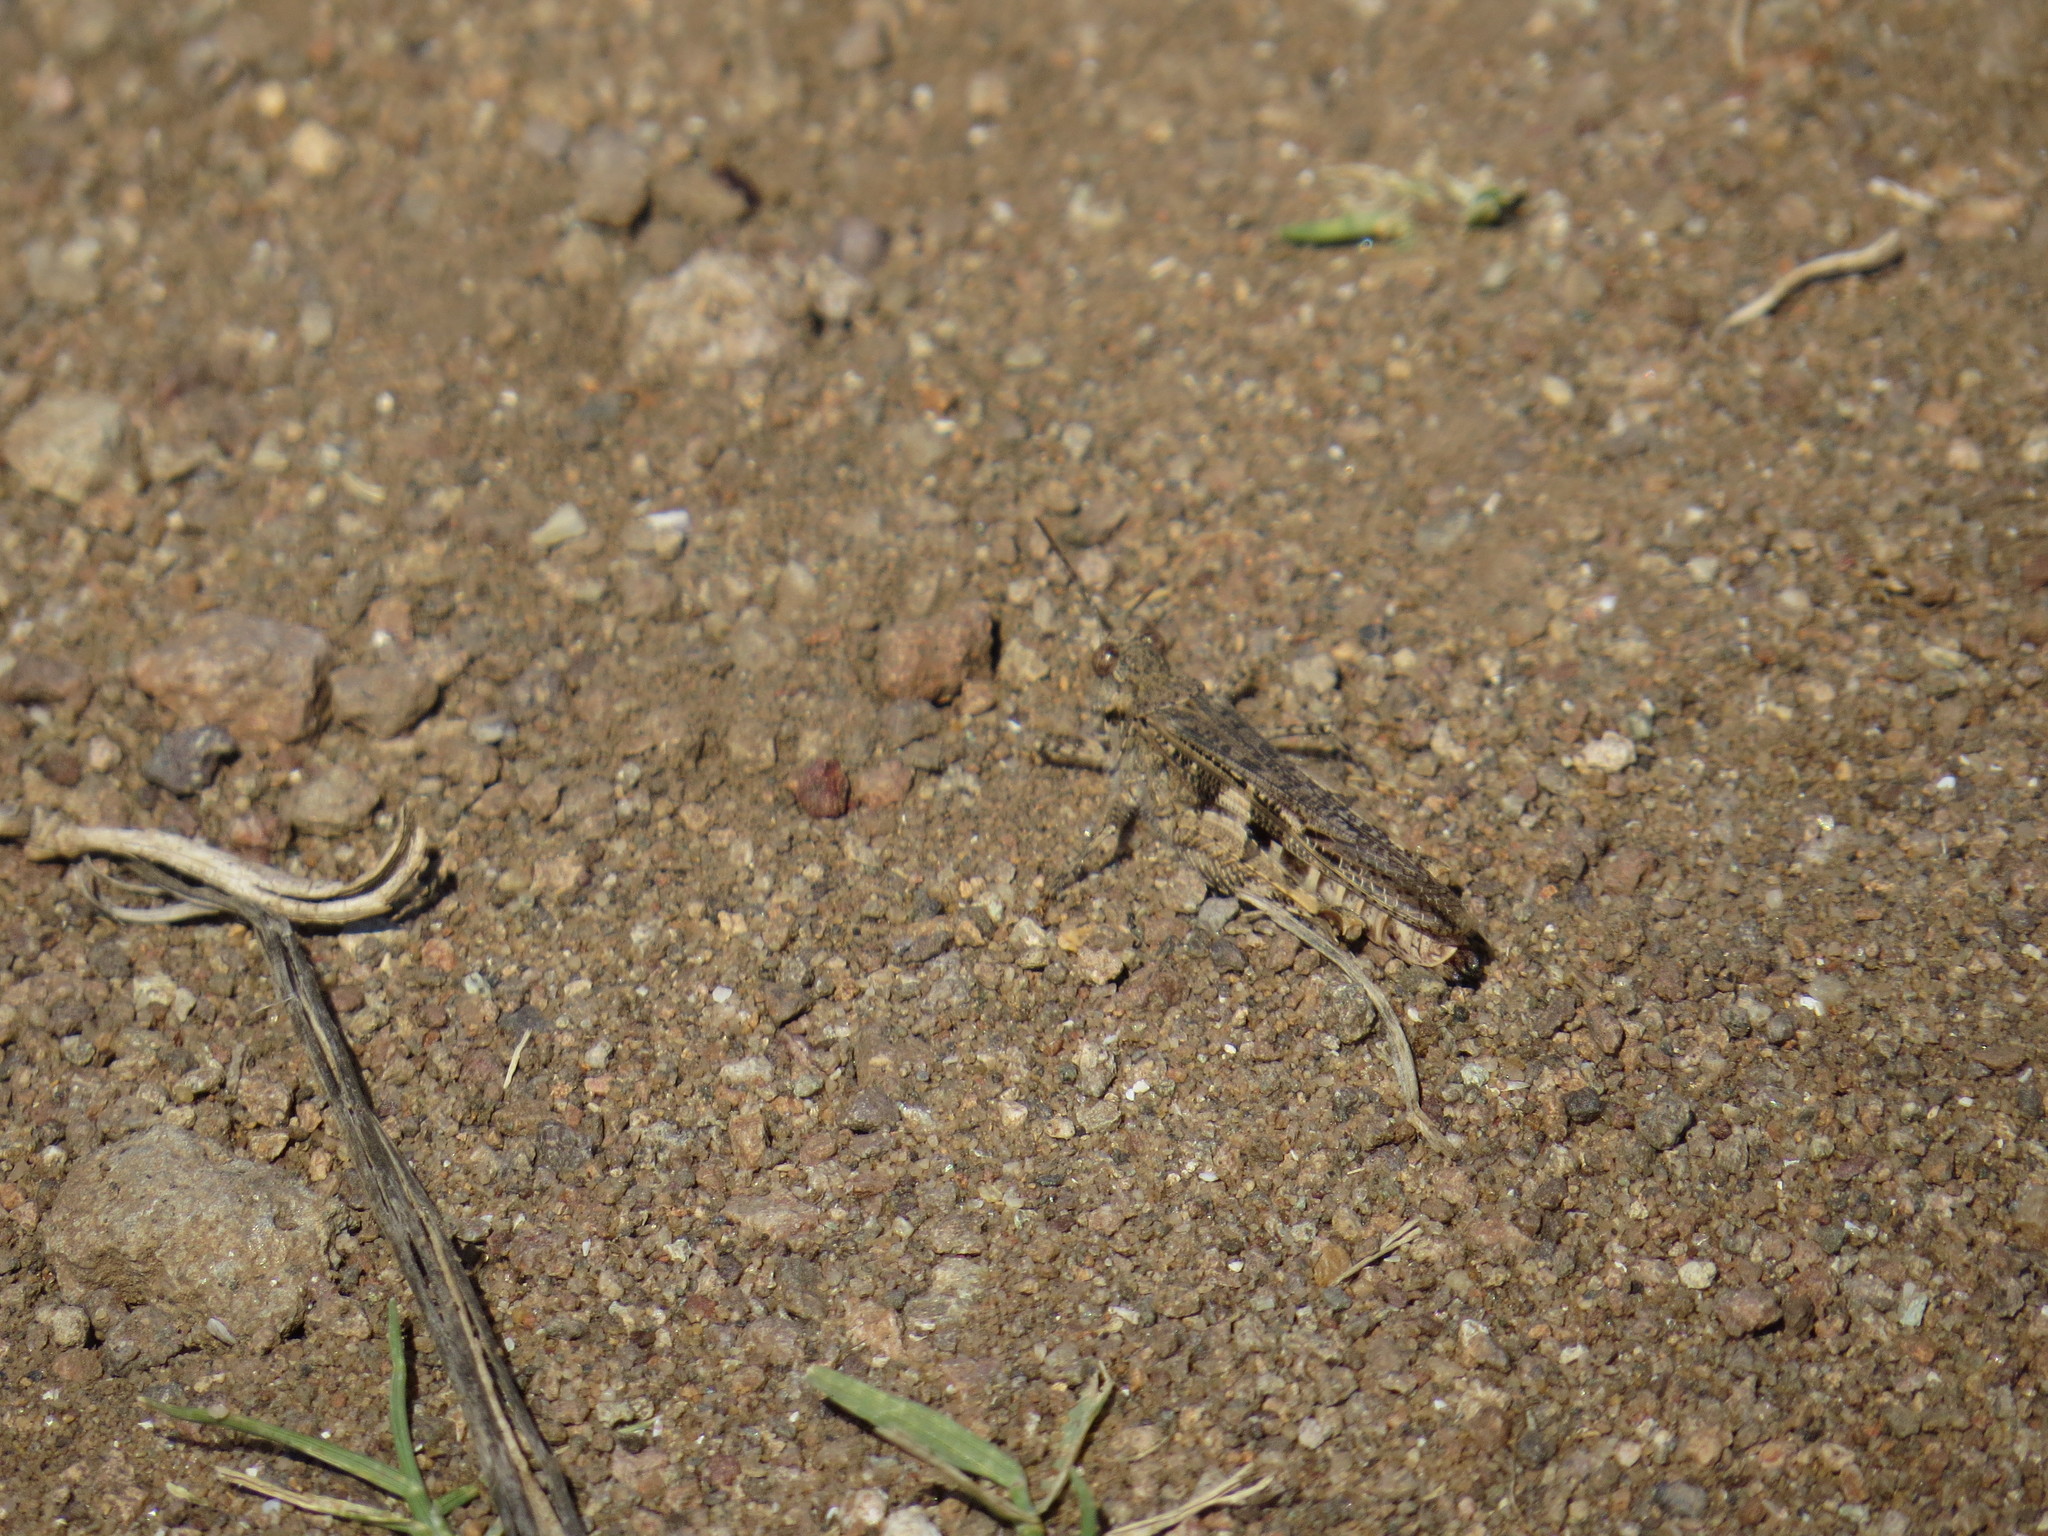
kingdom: Animalia
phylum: Arthropoda
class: Insecta
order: Orthoptera
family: Acrididae
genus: Acrotylus
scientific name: Acrotylus insubricus
